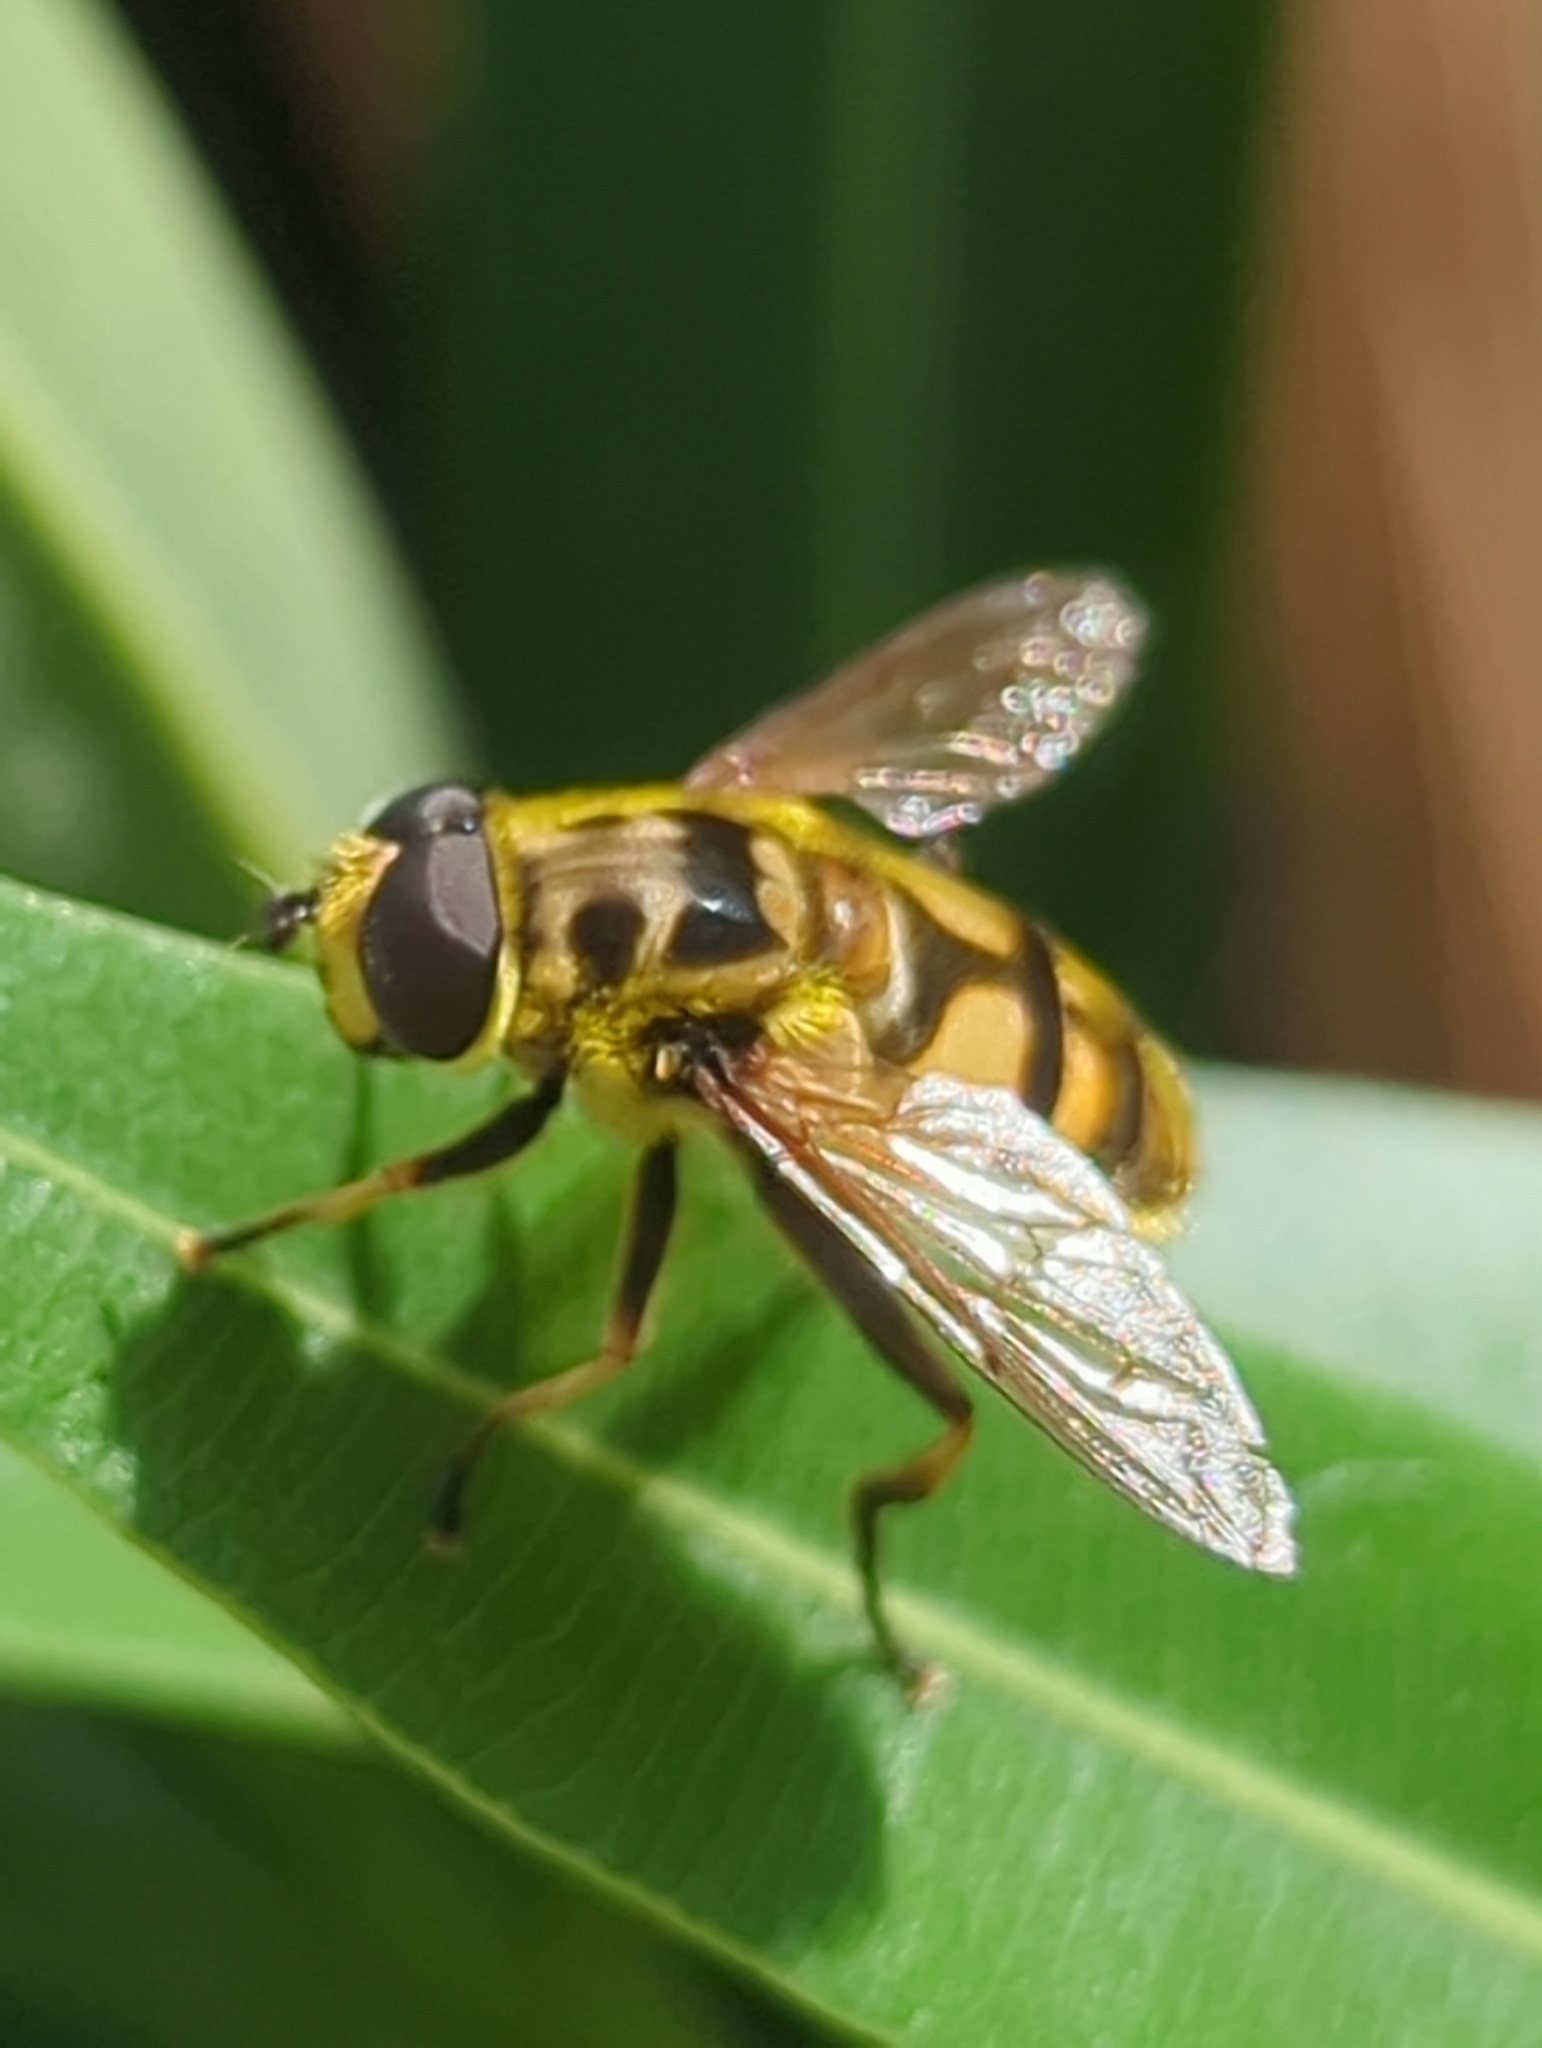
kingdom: Animalia
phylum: Arthropoda
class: Insecta
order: Diptera
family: Syrphidae
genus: Myathropa
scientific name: Myathropa florea
